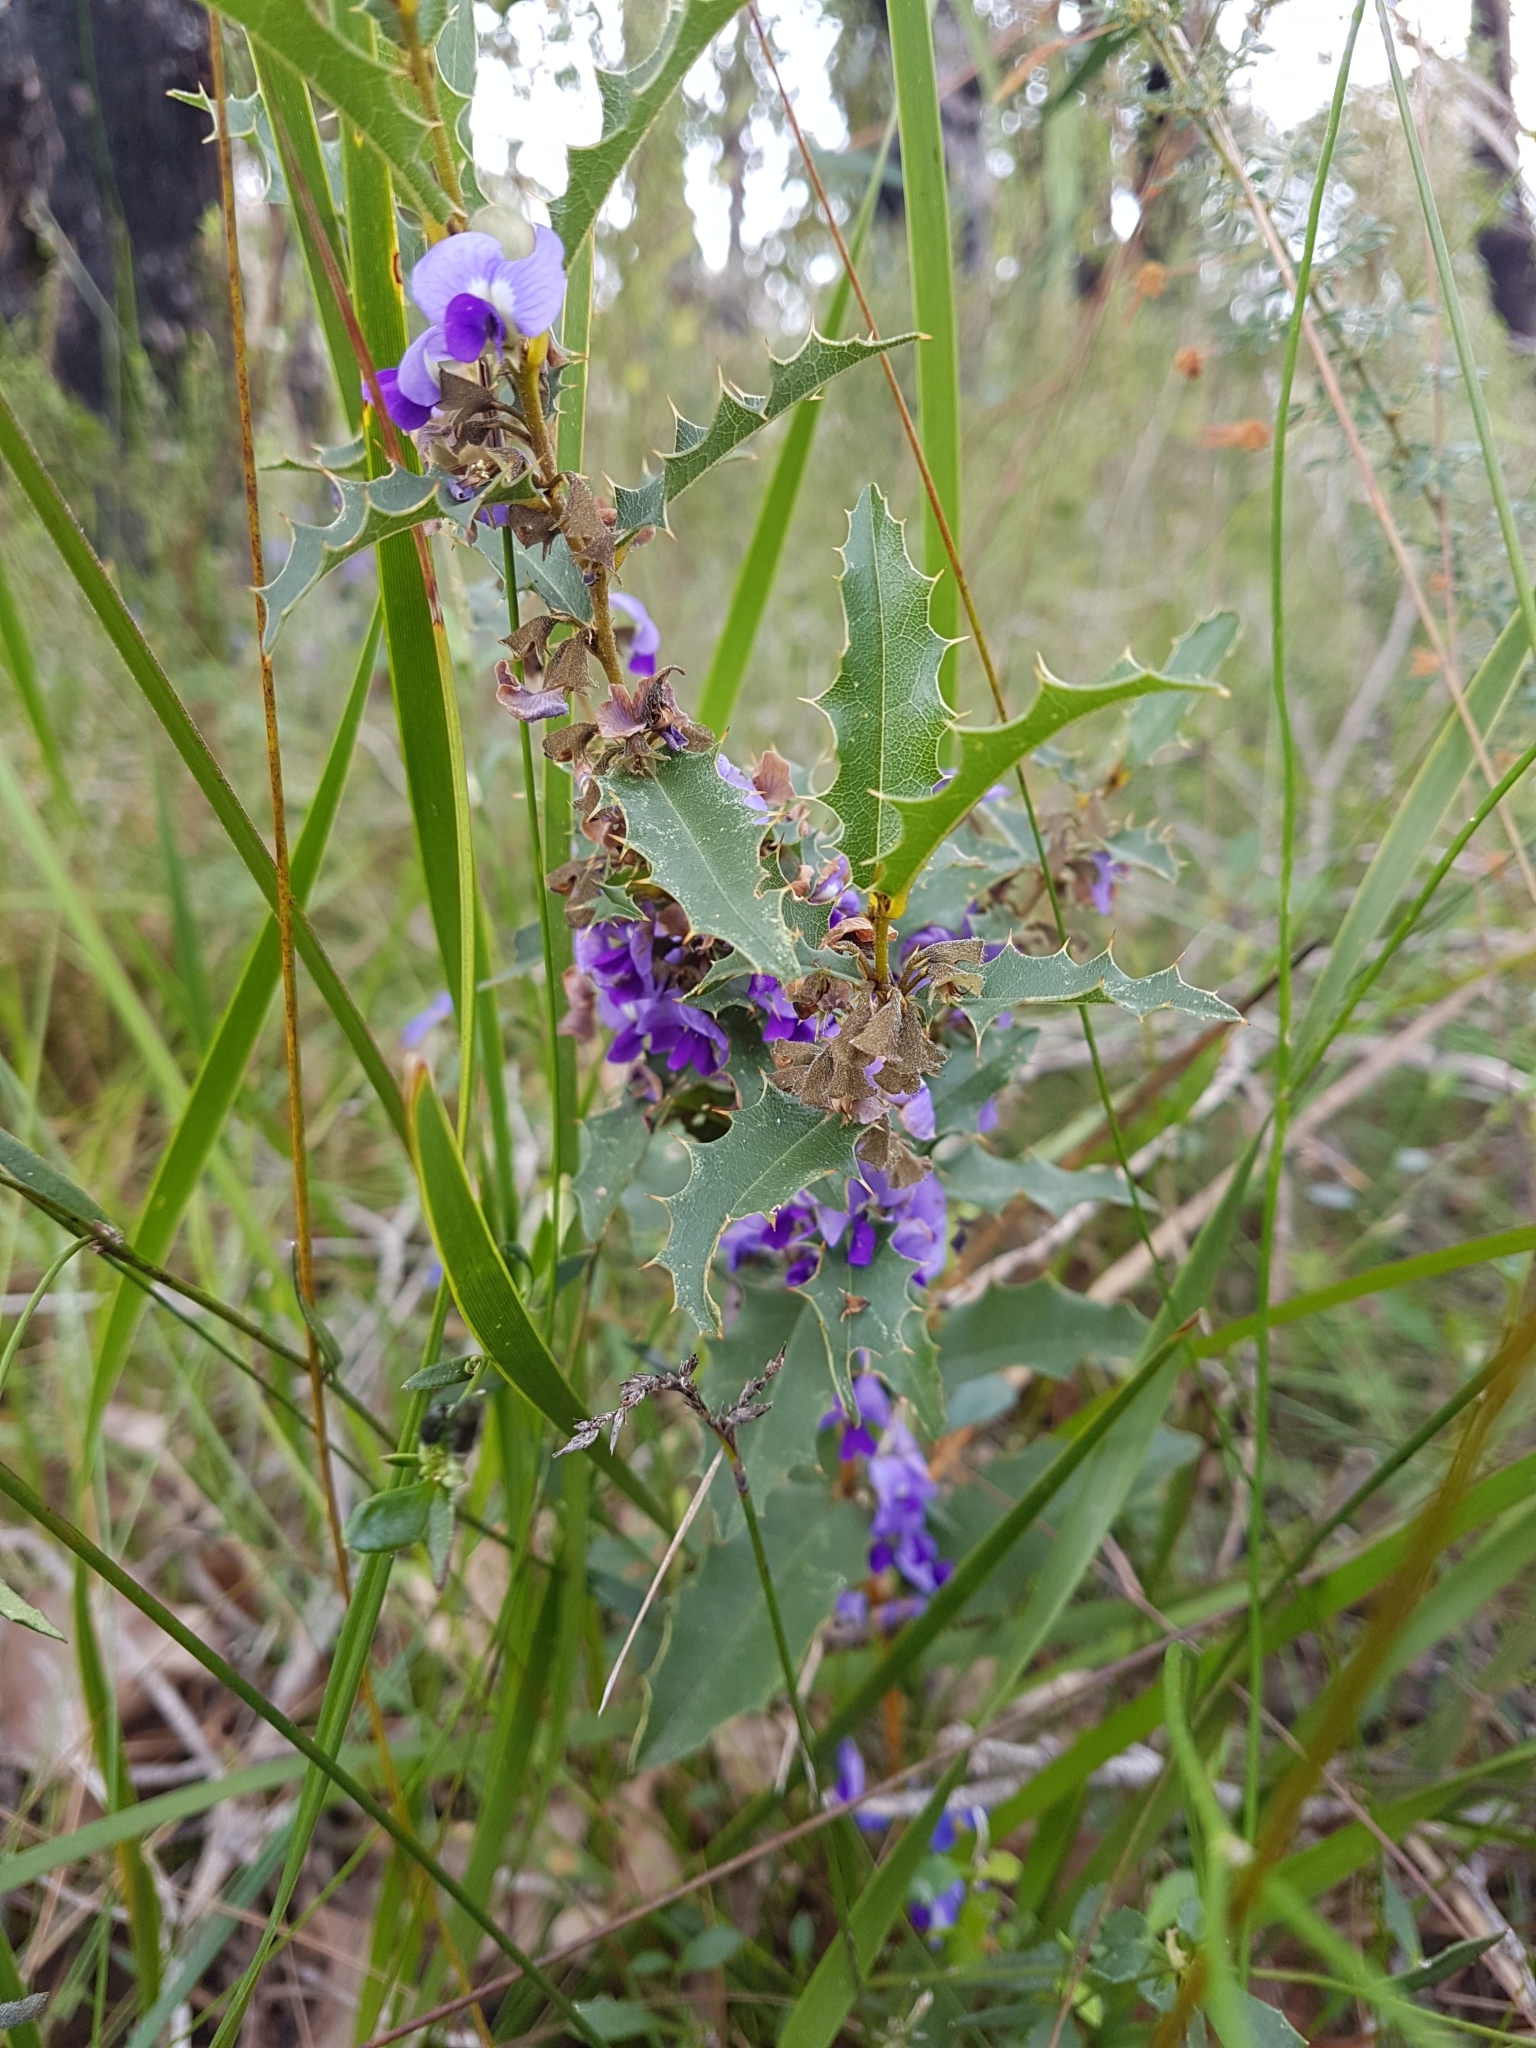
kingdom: Plantae
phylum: Tracheophyta
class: Magnoliopsida
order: Fabales
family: Fabaceae
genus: Hovea
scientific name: Hovea chorizemifolia
